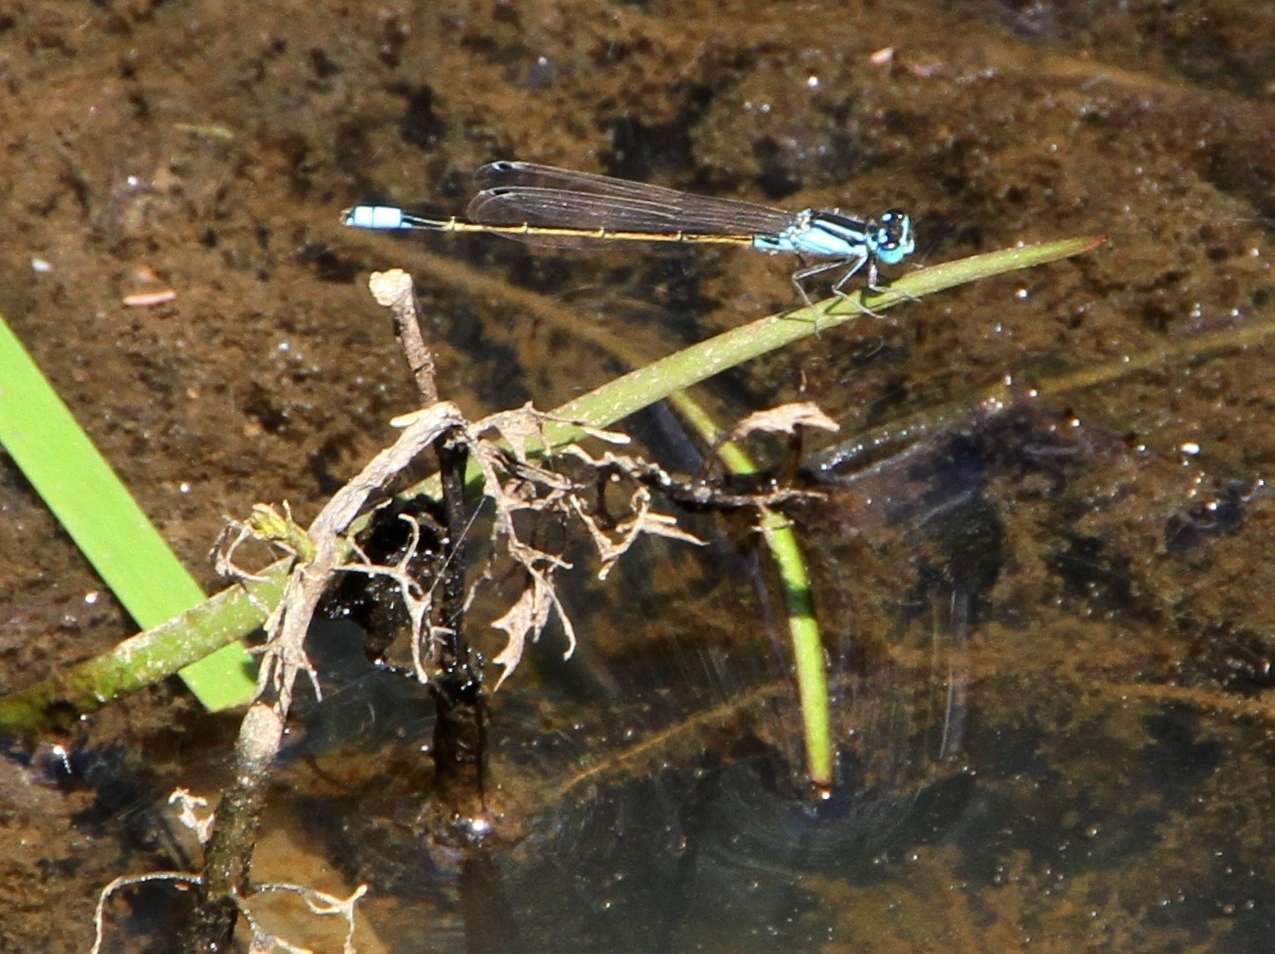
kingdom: Animalia
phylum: Arthropoda
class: Insecta
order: Odonata
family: Coenagrionidae
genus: Ischnura
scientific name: Ischnura heterosticta
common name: Common bluetail
